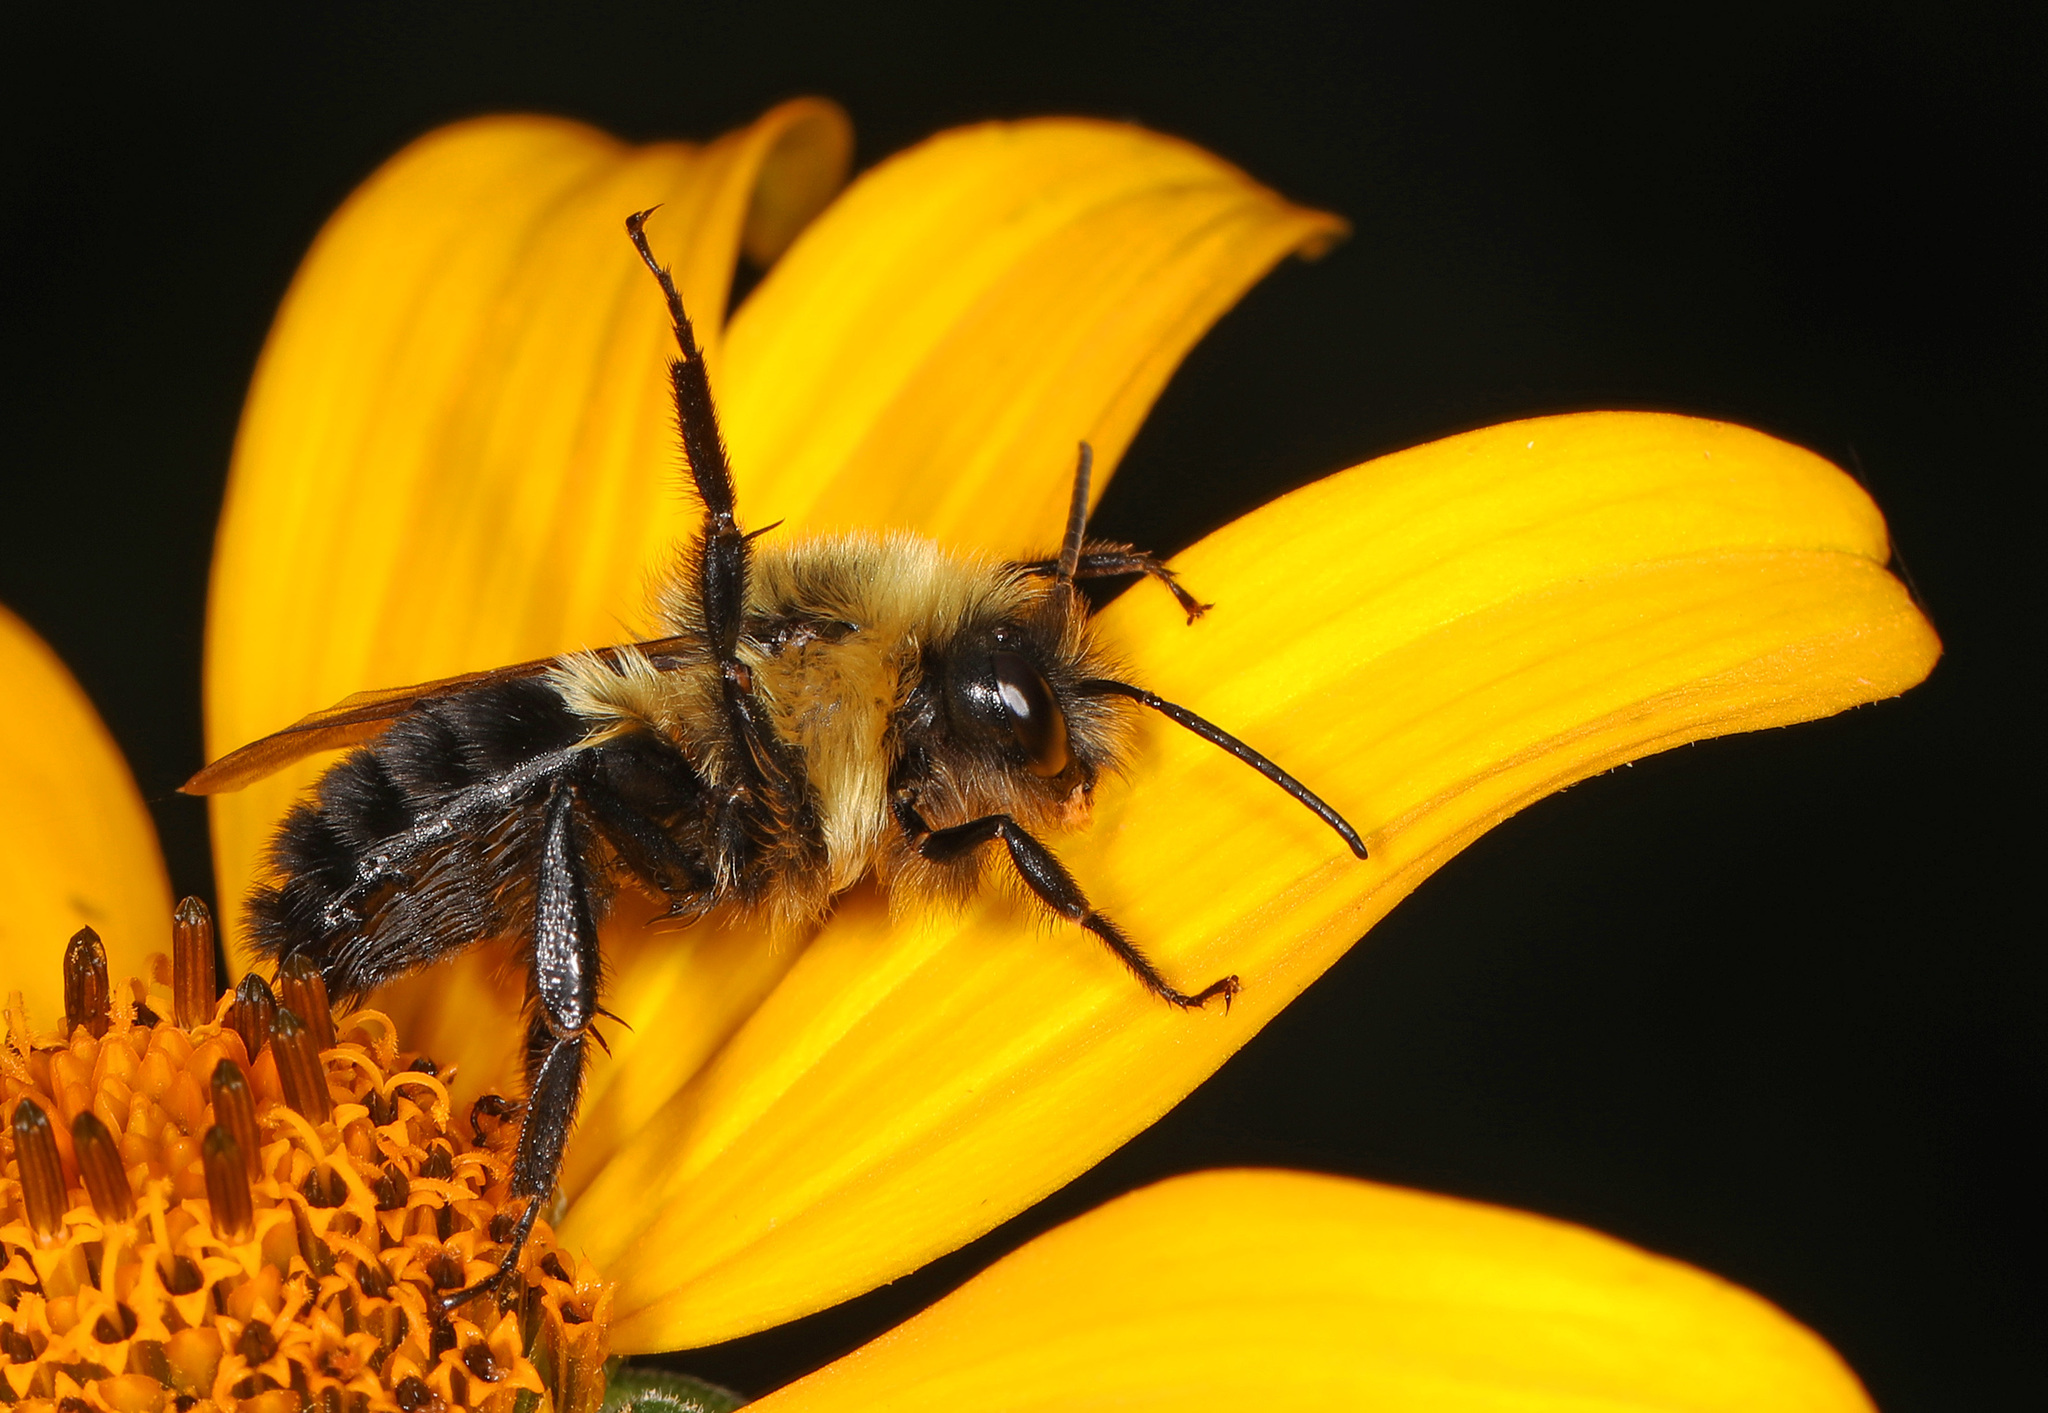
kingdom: Animalia
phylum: Arthropoda
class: Insecta
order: Hymenoptera
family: Apidae
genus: Bombus
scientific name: Bombus impatiens
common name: Common eastern bumble bee
